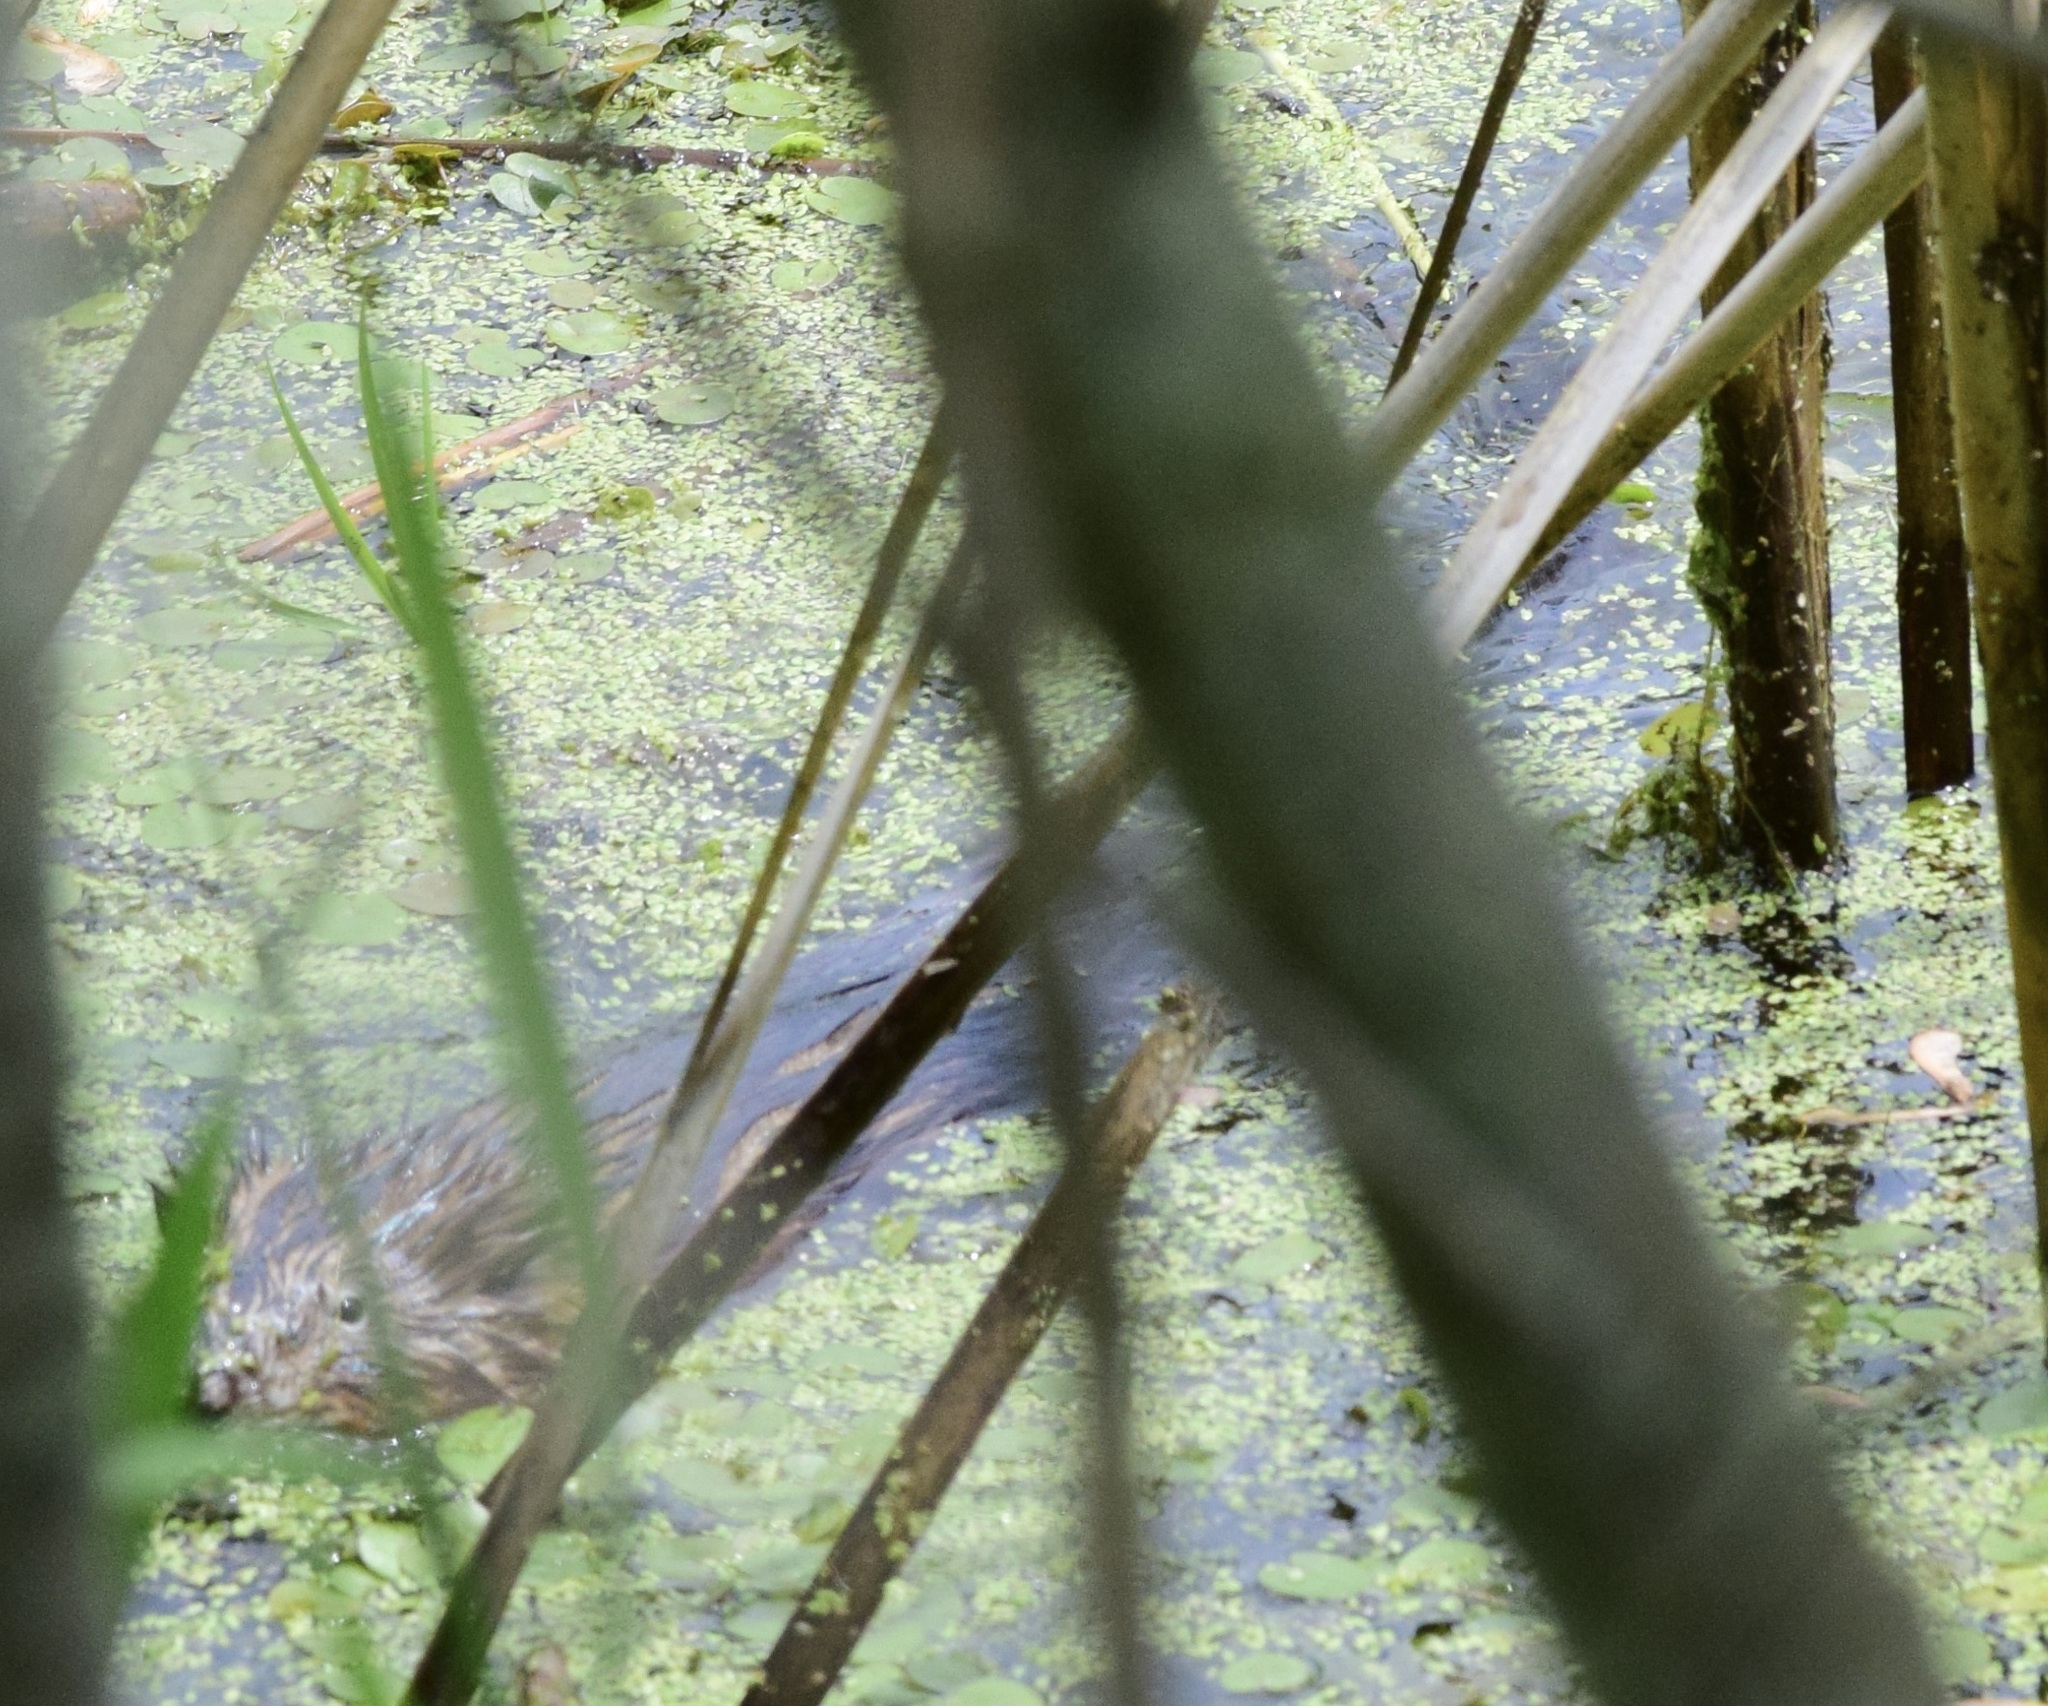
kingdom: Animalia
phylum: Chordata
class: Mammalia
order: Rodentia
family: Cricetidae
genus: Ondatra
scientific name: Ondatra zibethicus
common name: Muskrat
